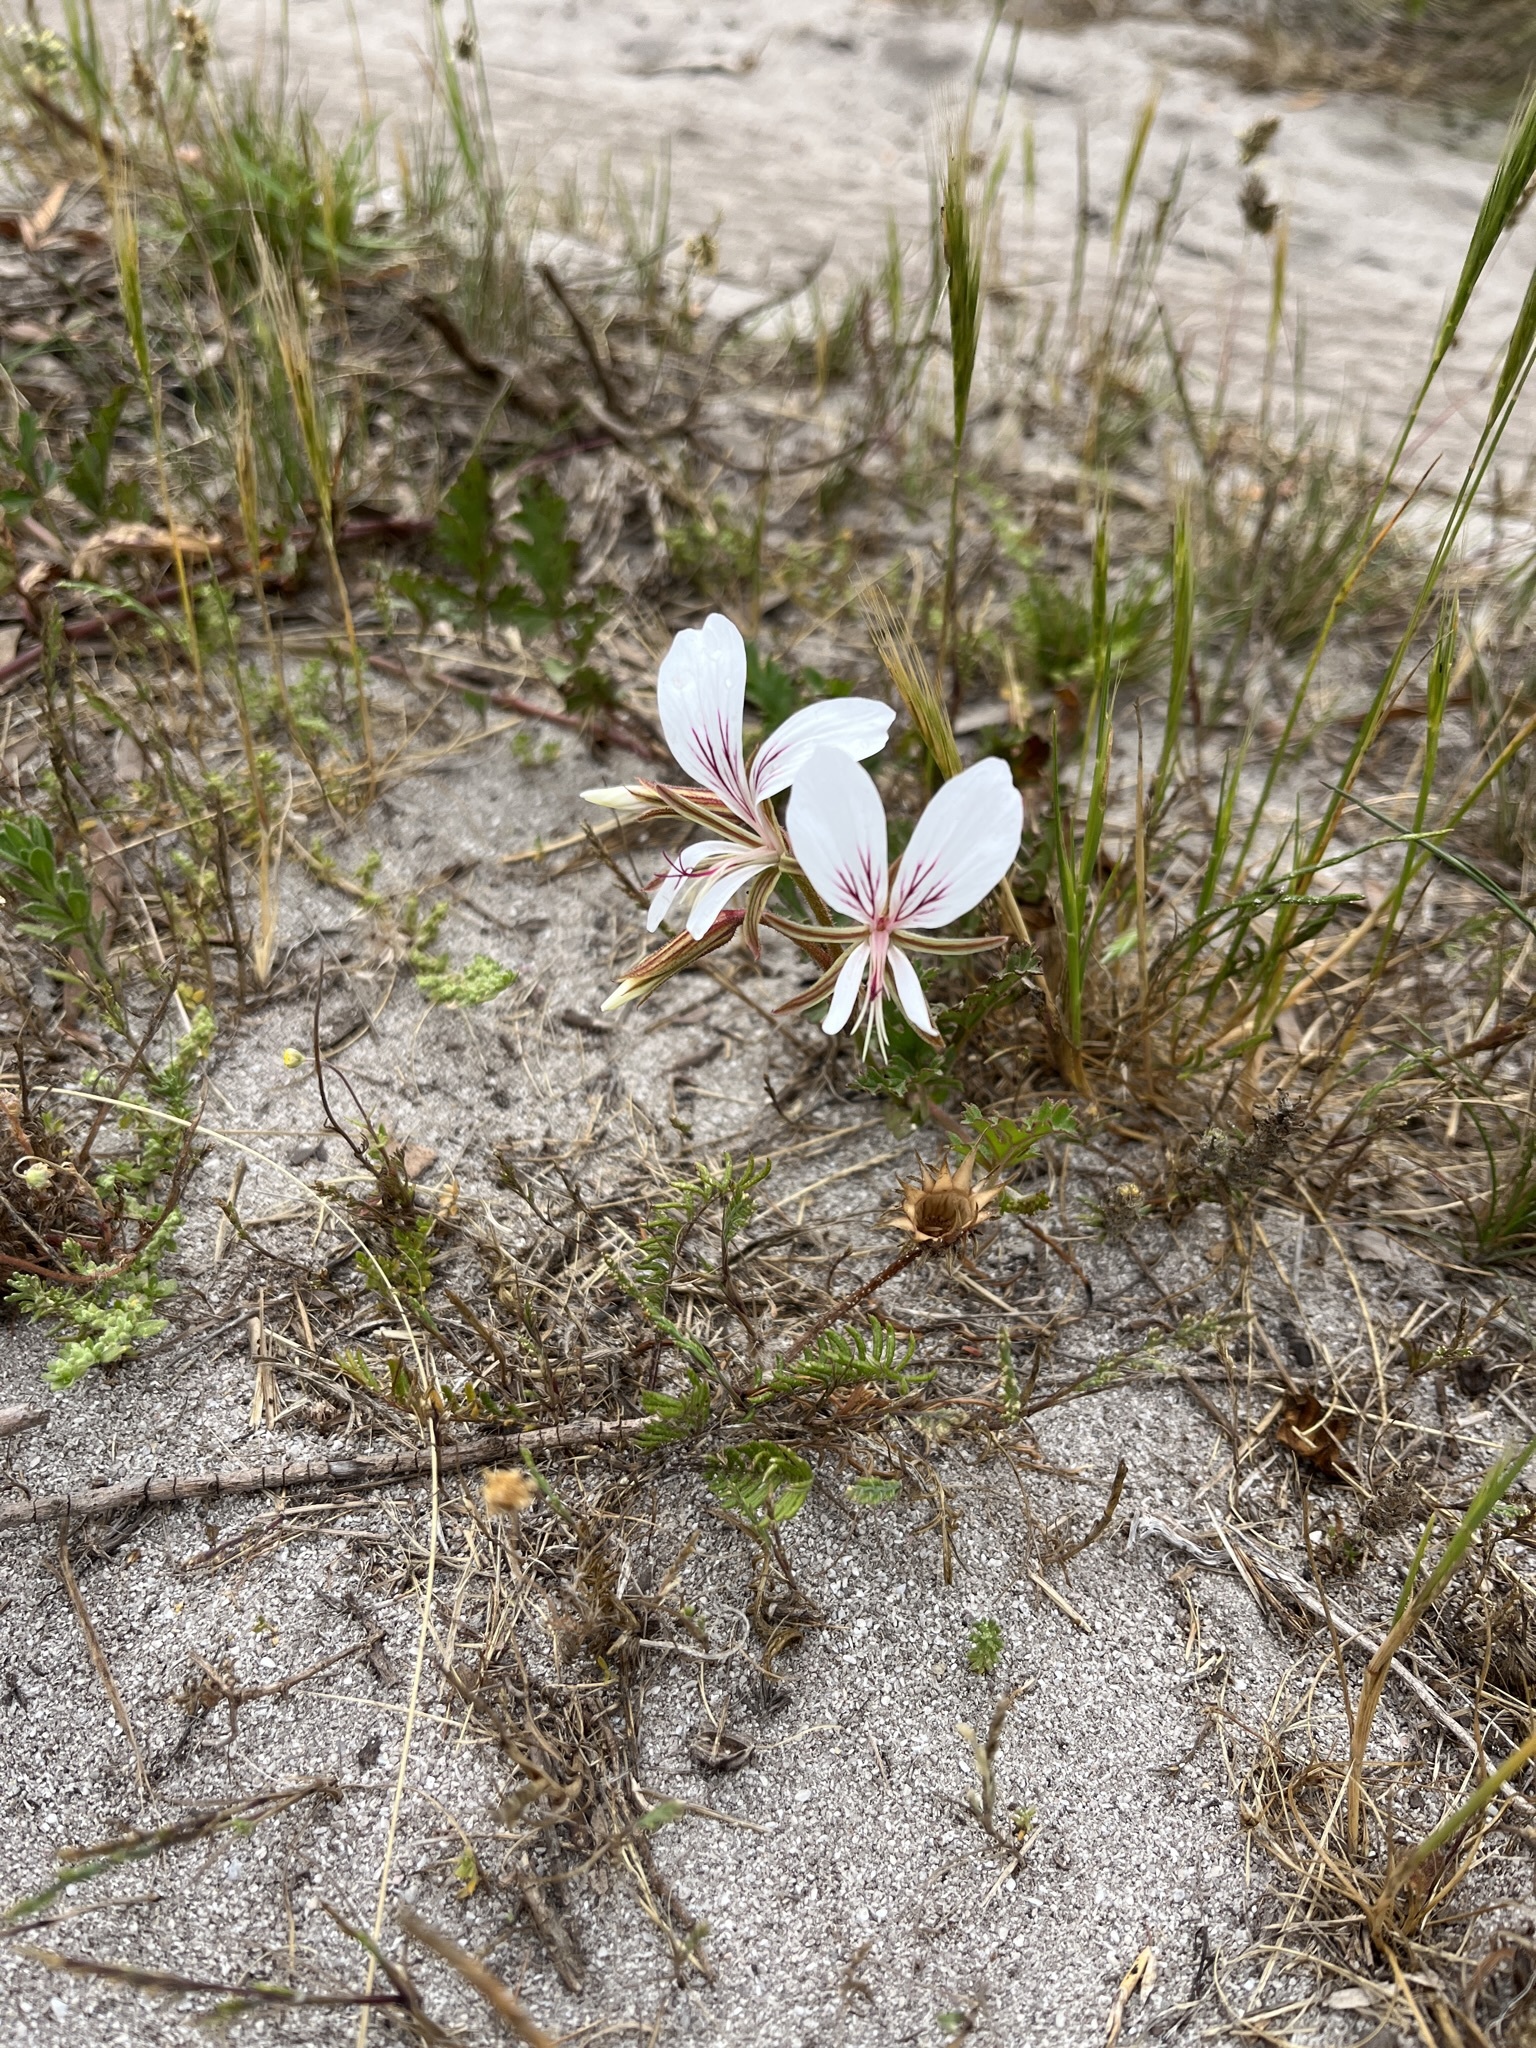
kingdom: Plantae
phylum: Tracheophyta
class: Magnoliopsida
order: Geraniales
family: Geraniaceae
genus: Pelargonium
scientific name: Pelargonium suburbanum
